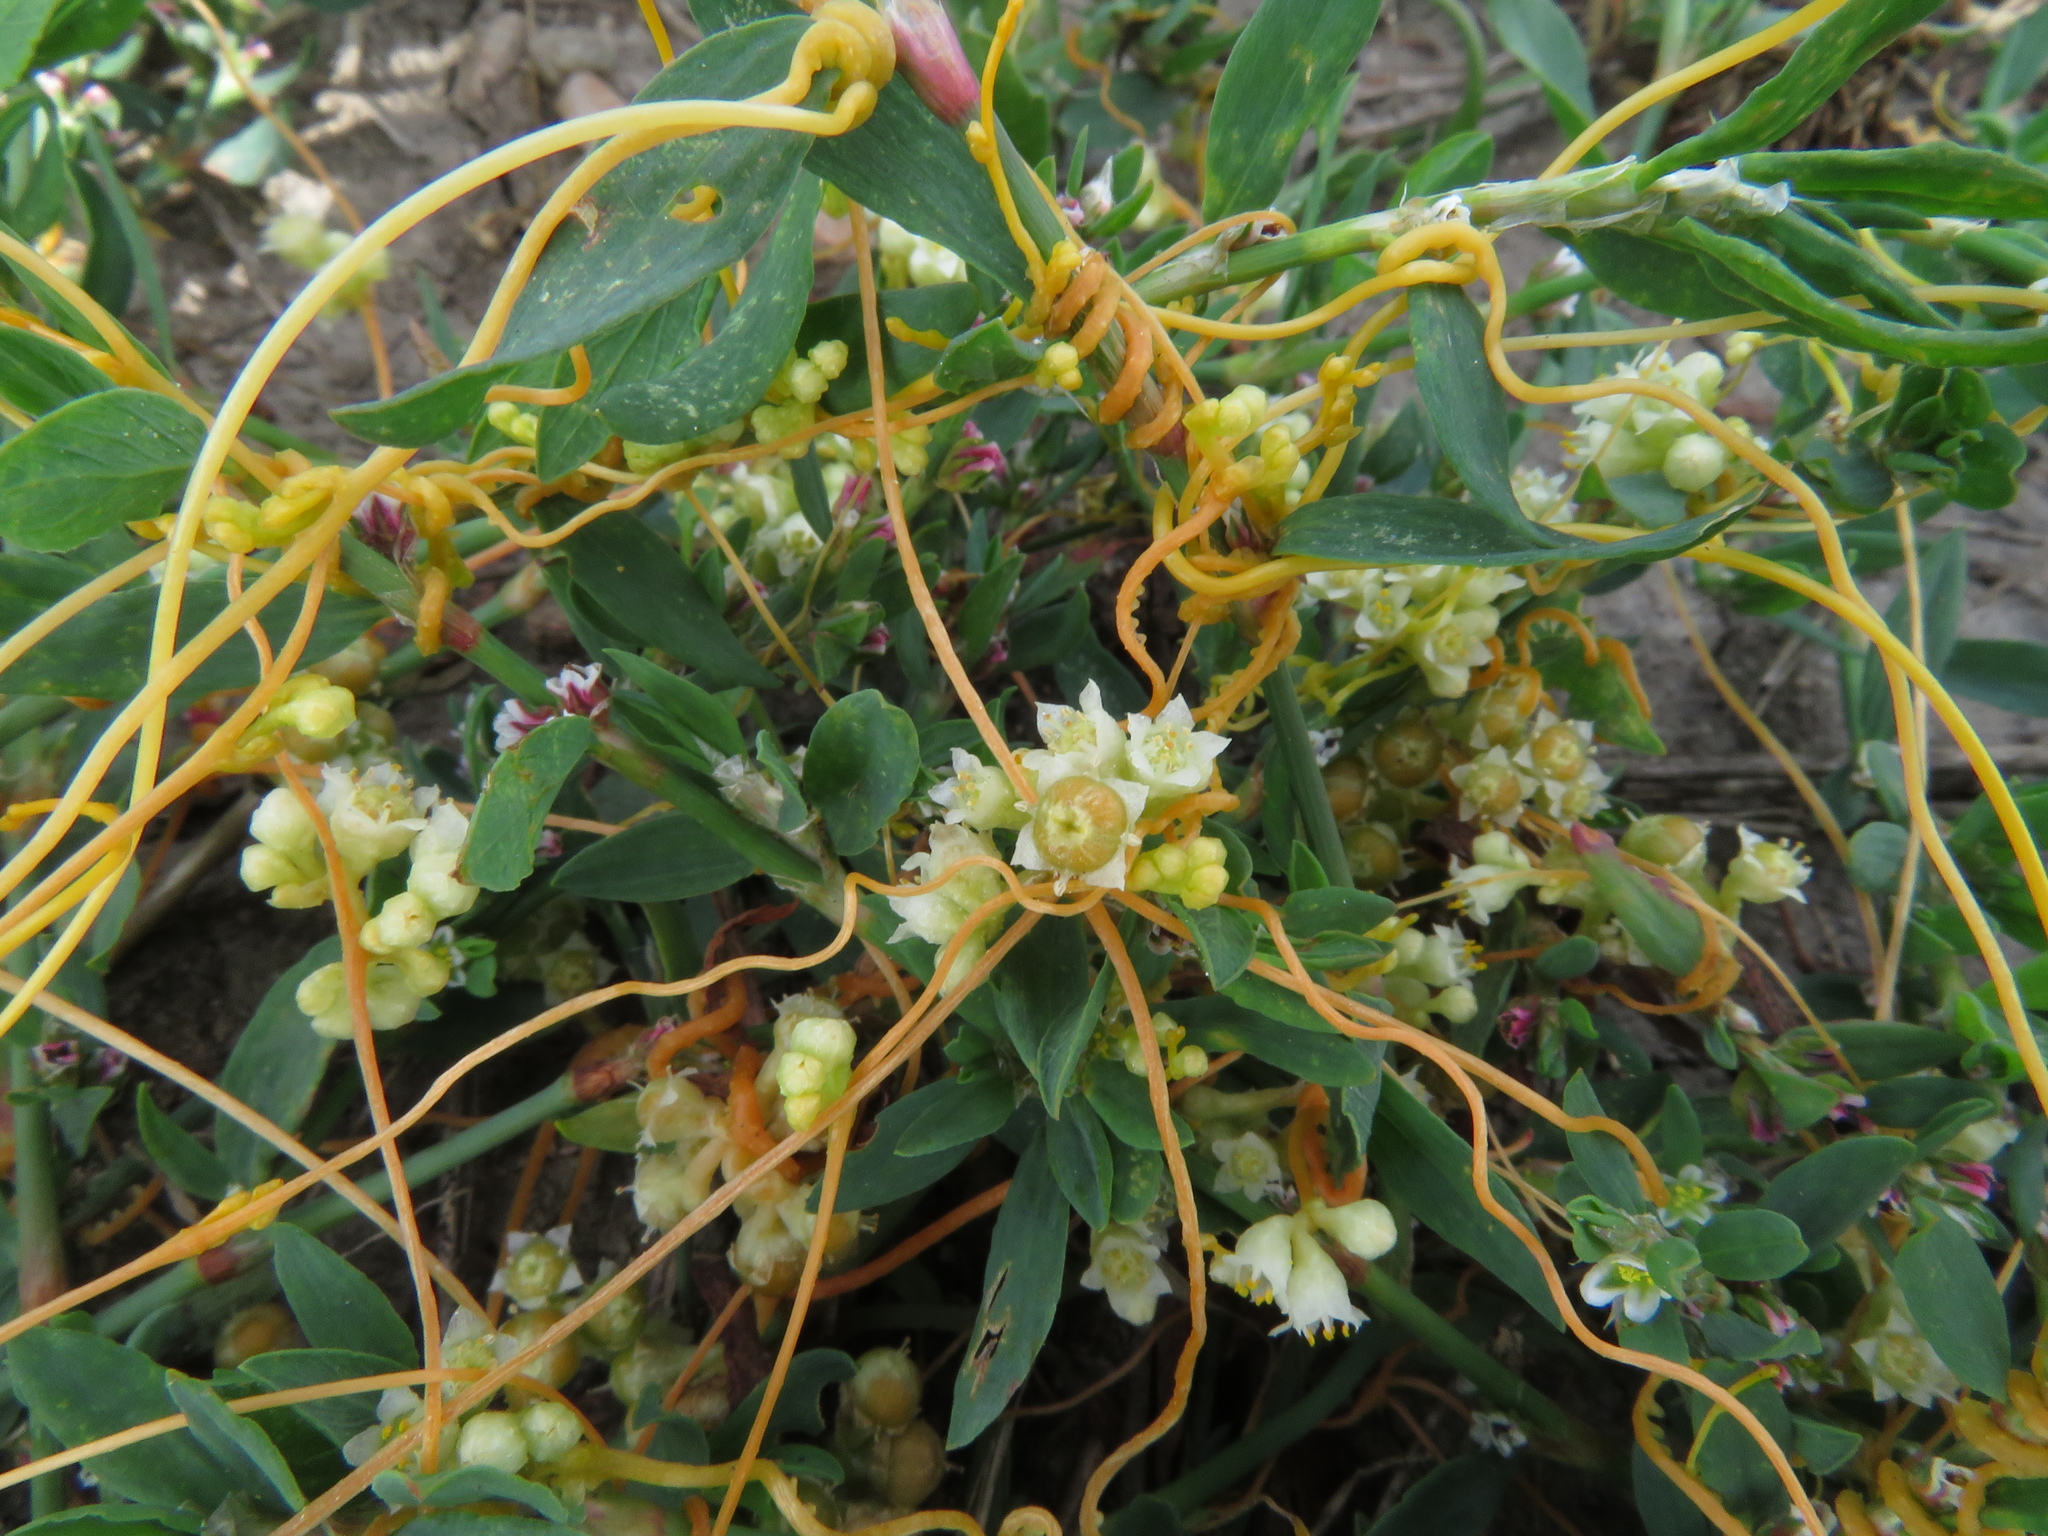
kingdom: Plantae
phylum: Tracheophyta
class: Magnoliopsida
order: Solanales
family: Convolvulaceae
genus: Cuscuta
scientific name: Cuscuta campestris
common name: Yellow dodder
